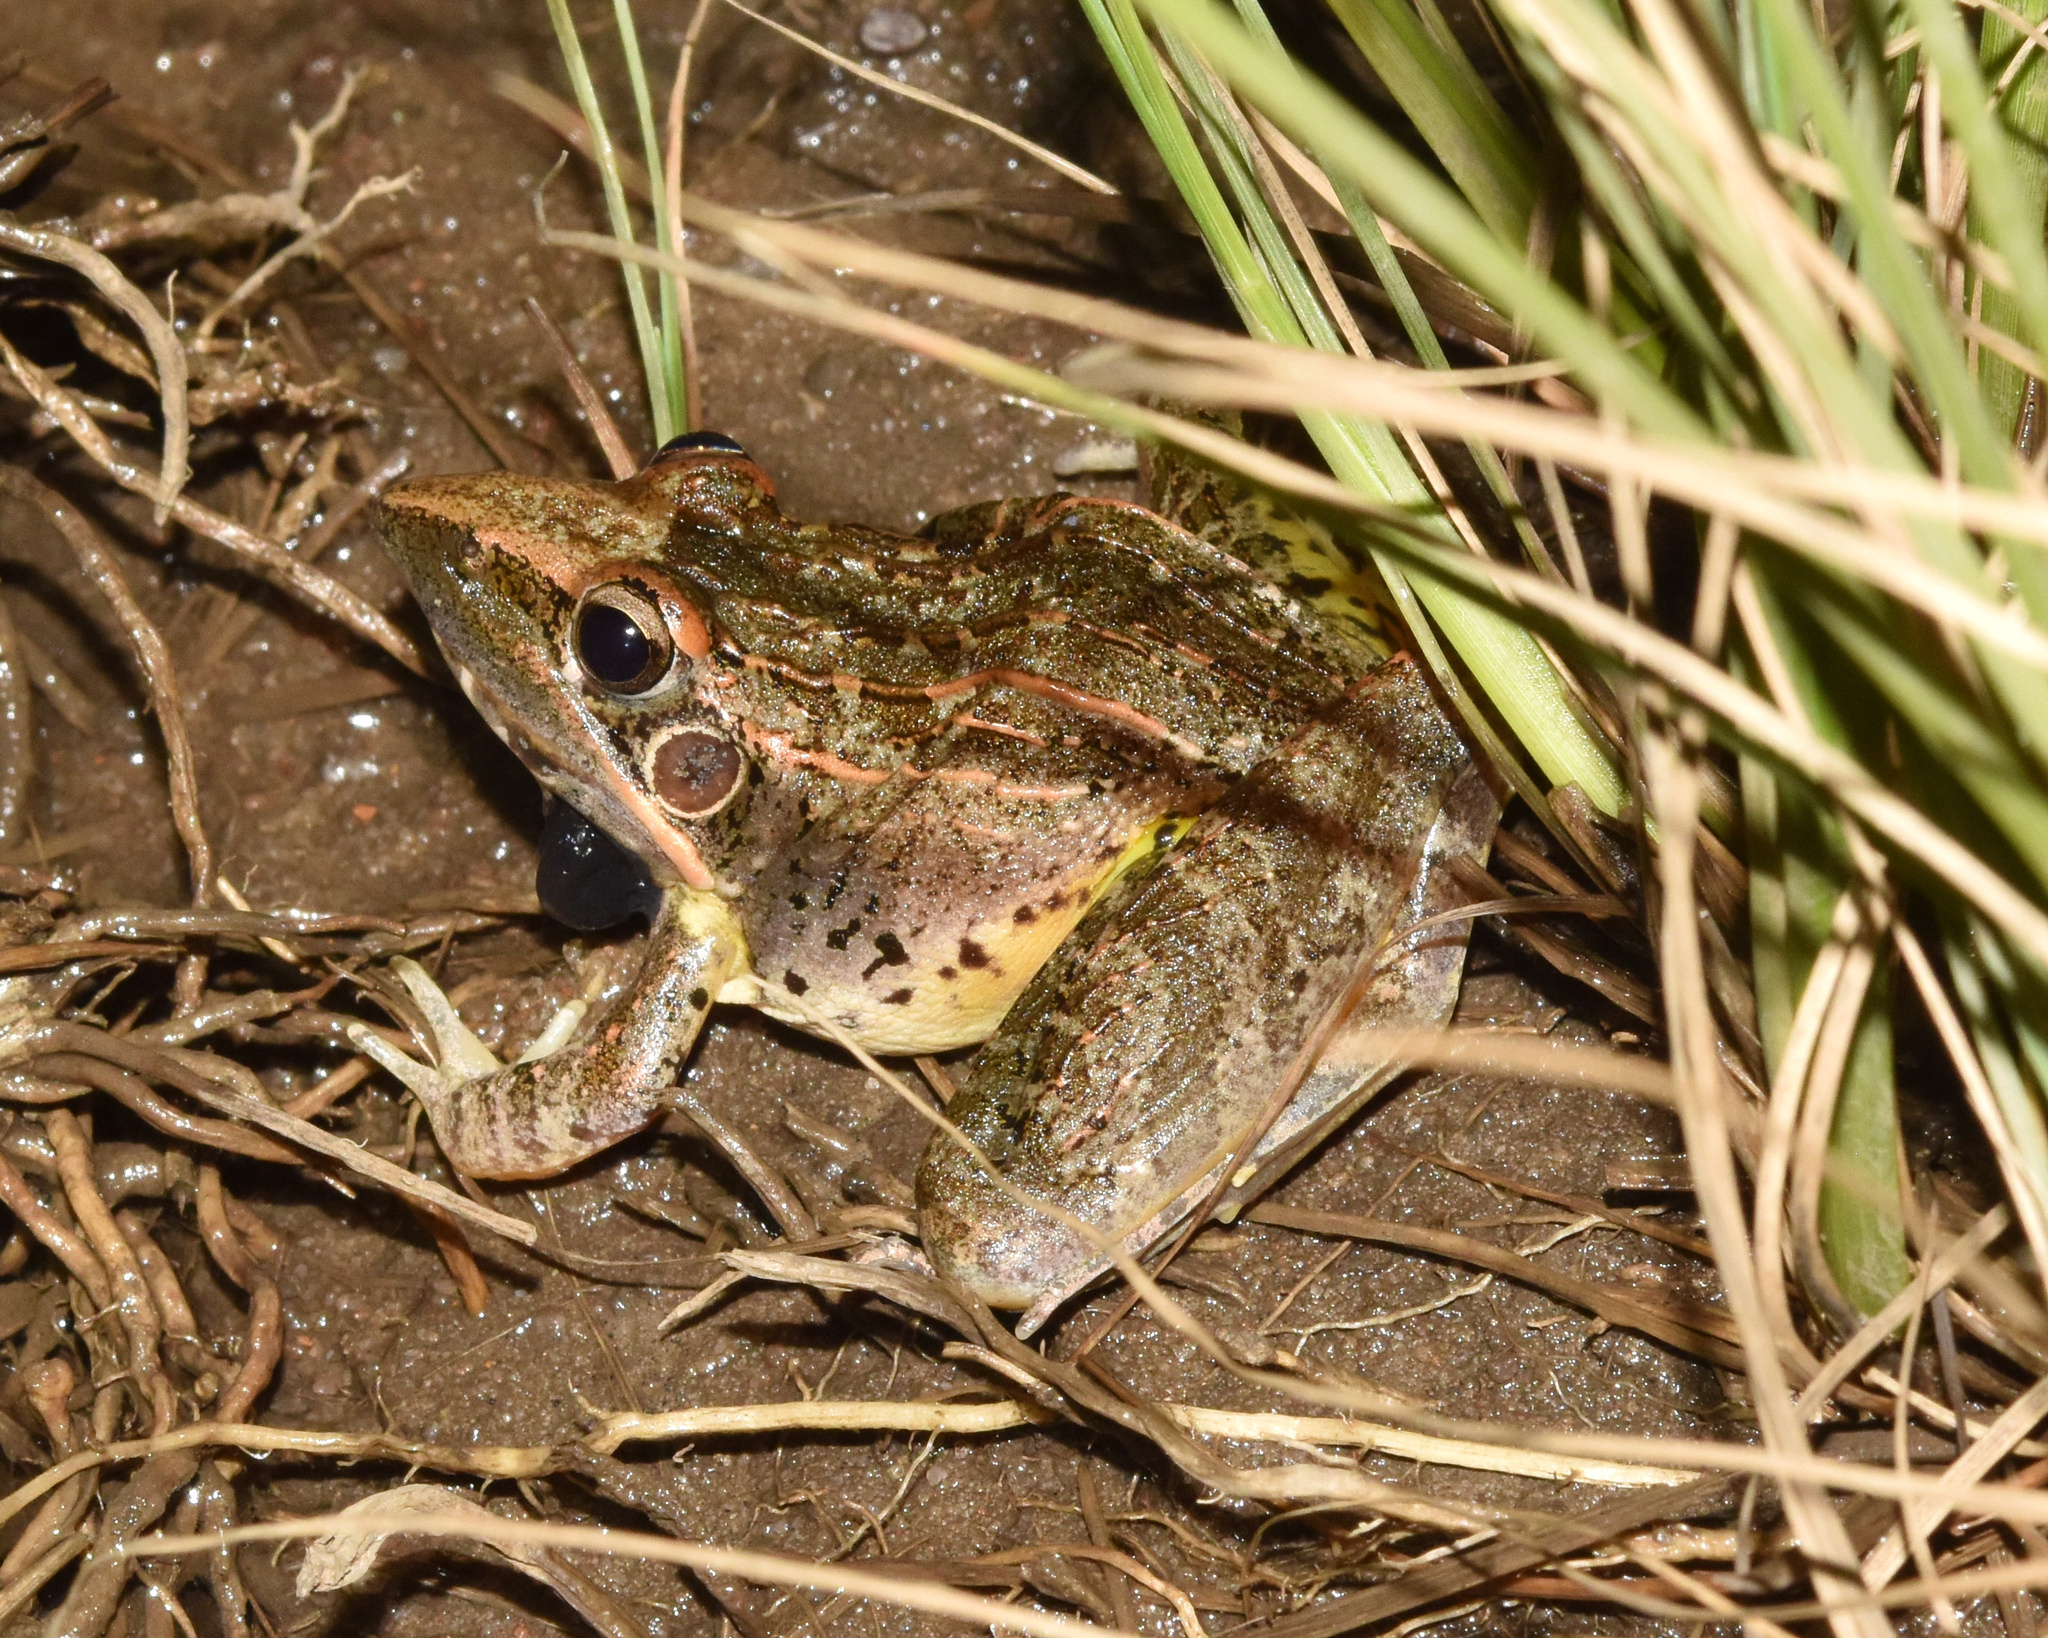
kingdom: Animalia
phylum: Chordata
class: Amphibia
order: Anura
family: Ptychadenidae
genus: Ptychadena
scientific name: Ptychadena oxyrhynchus
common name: Sharp-nosed ridged frog
